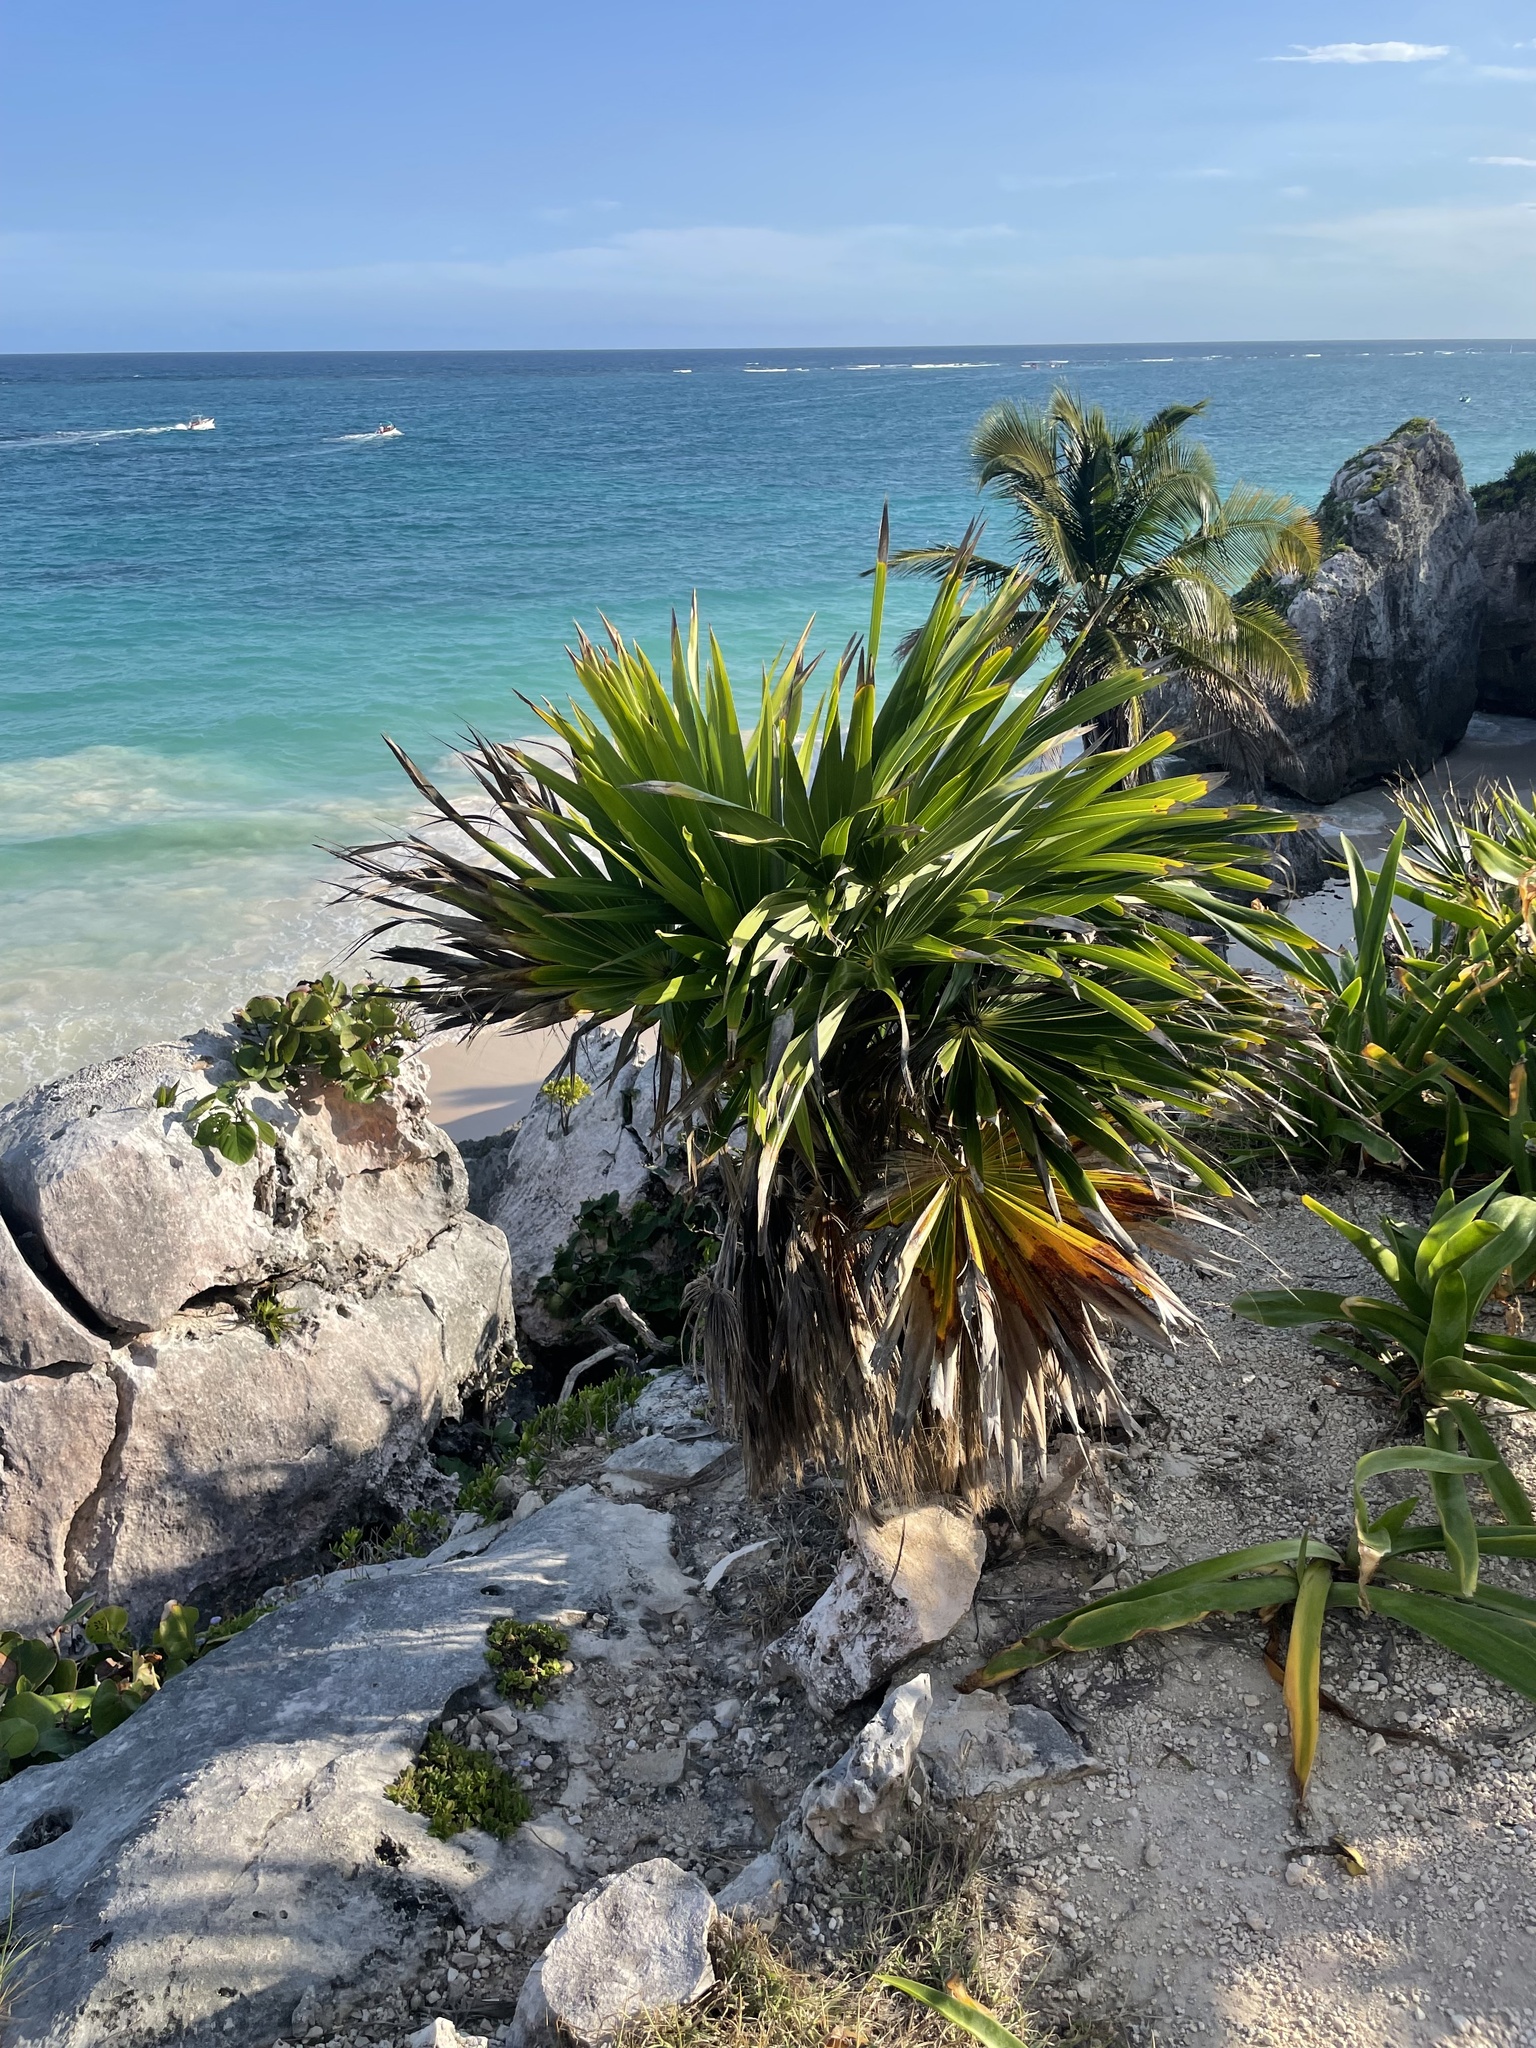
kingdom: Plantae
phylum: Tracheophyta
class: Liliopsida
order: Arecales
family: Arecaceae
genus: Thrinax
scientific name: Thrinax radiata
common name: Florida thatch
